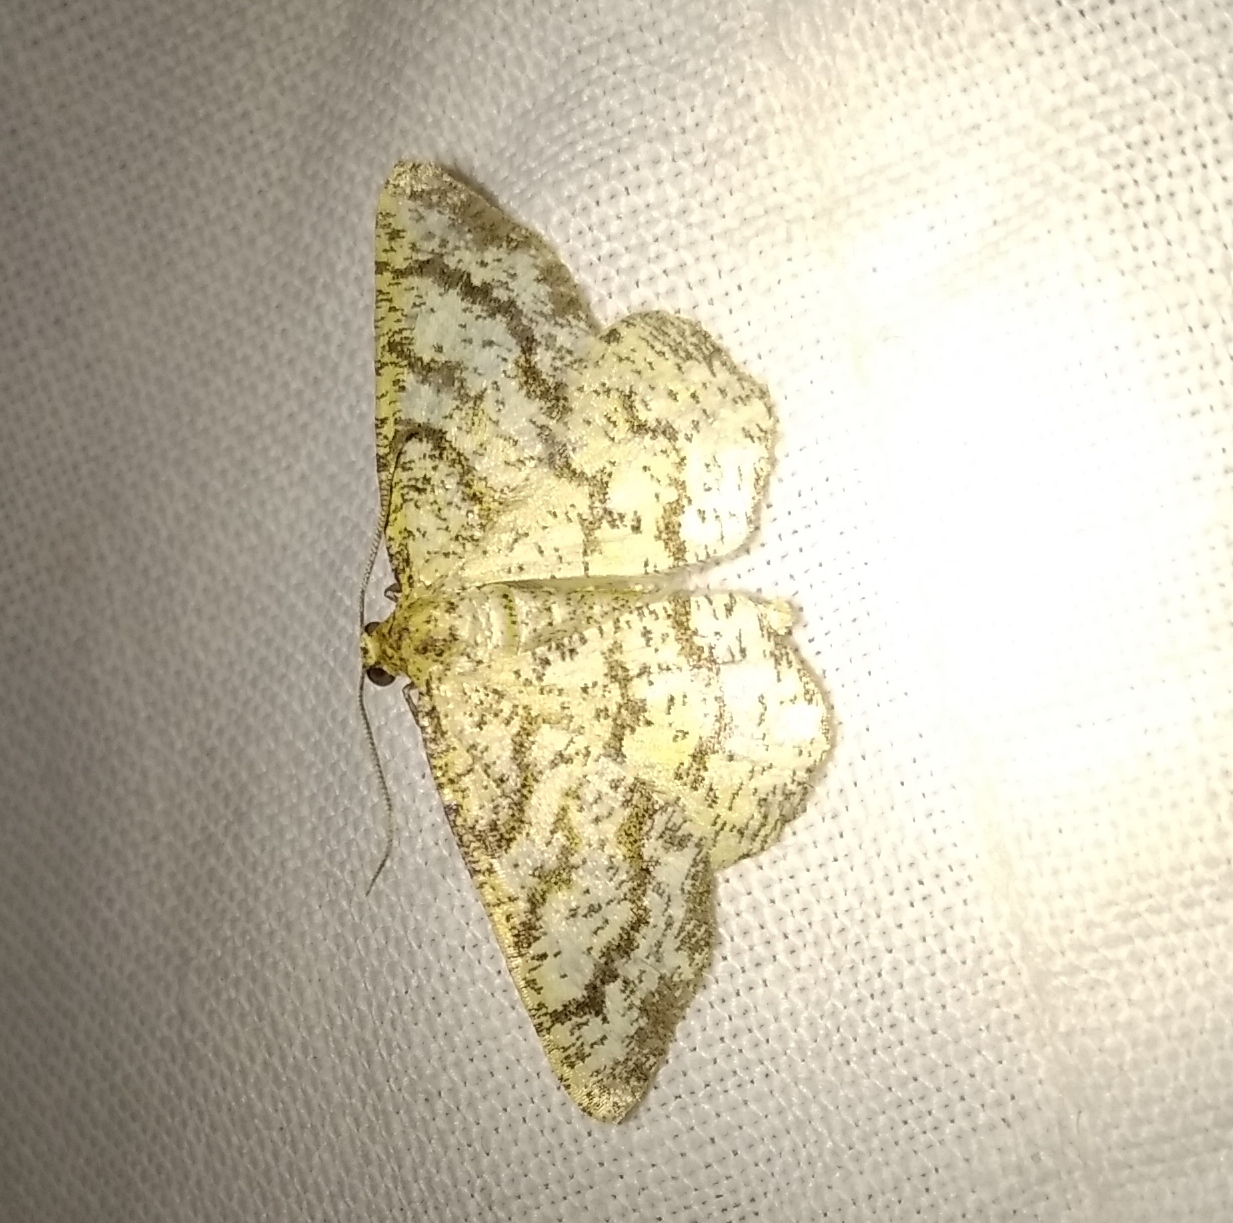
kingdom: Animalia
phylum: Arthropoda
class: Insecta
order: Lepidoptera
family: Geometridae
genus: Heliomata
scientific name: Heliomata glarearia
